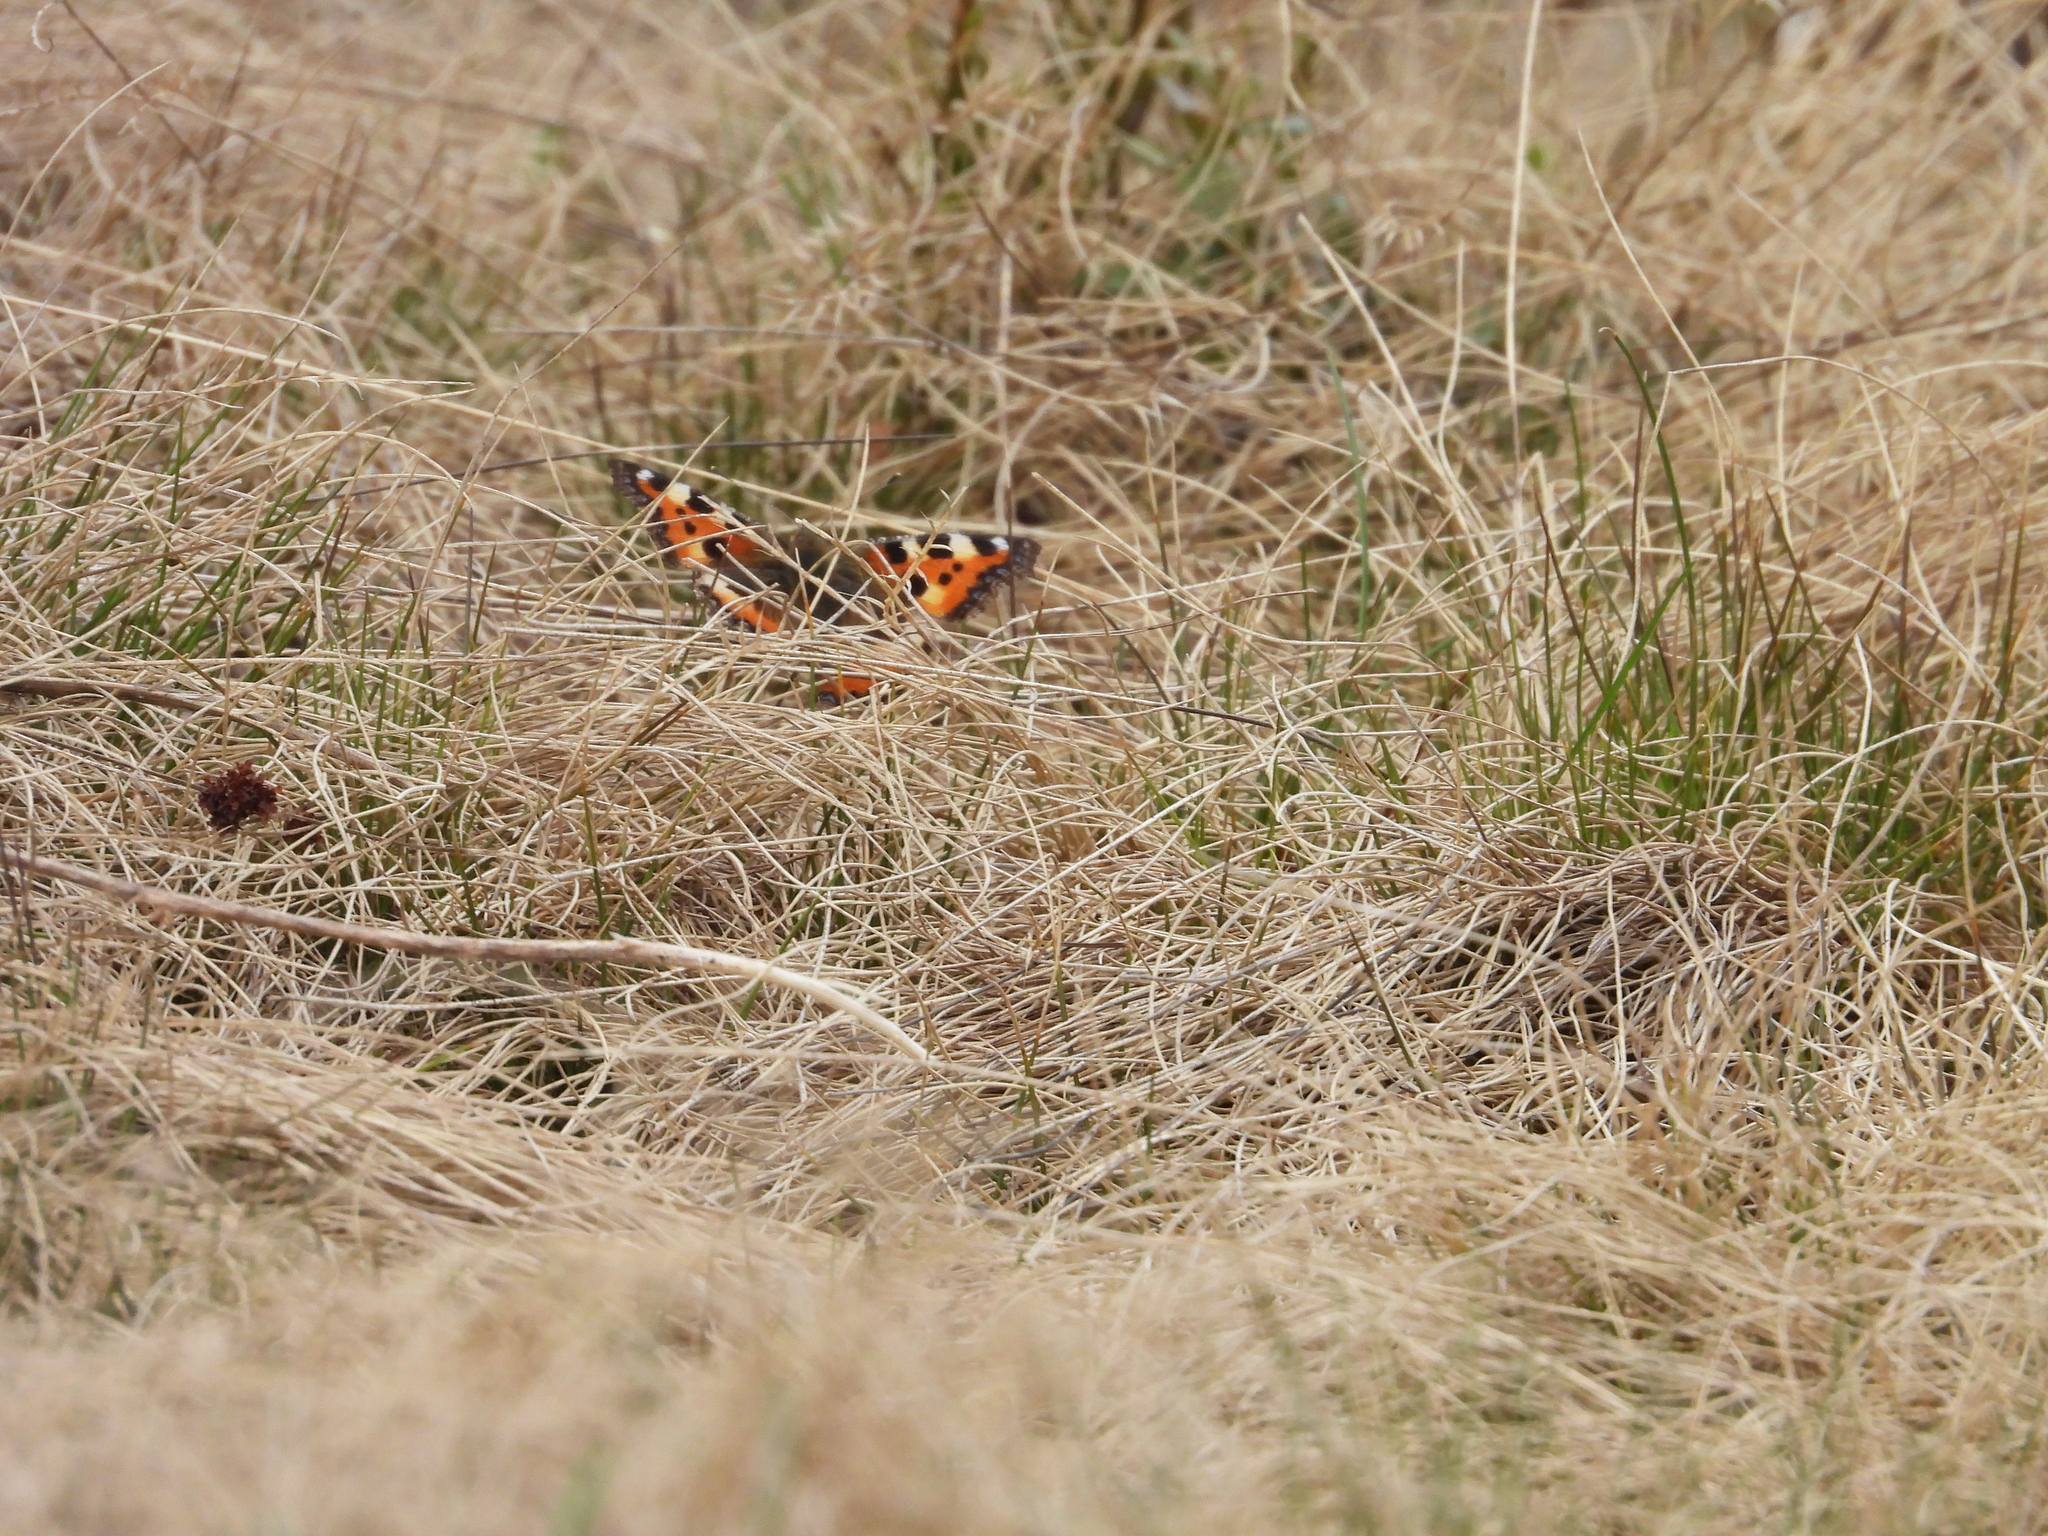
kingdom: Animalia
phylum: Arthropoda
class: Insecta
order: Lepidoptera
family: Nymphalidae
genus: Aglais
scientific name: Aglais urticae
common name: Small tortoiseshell
